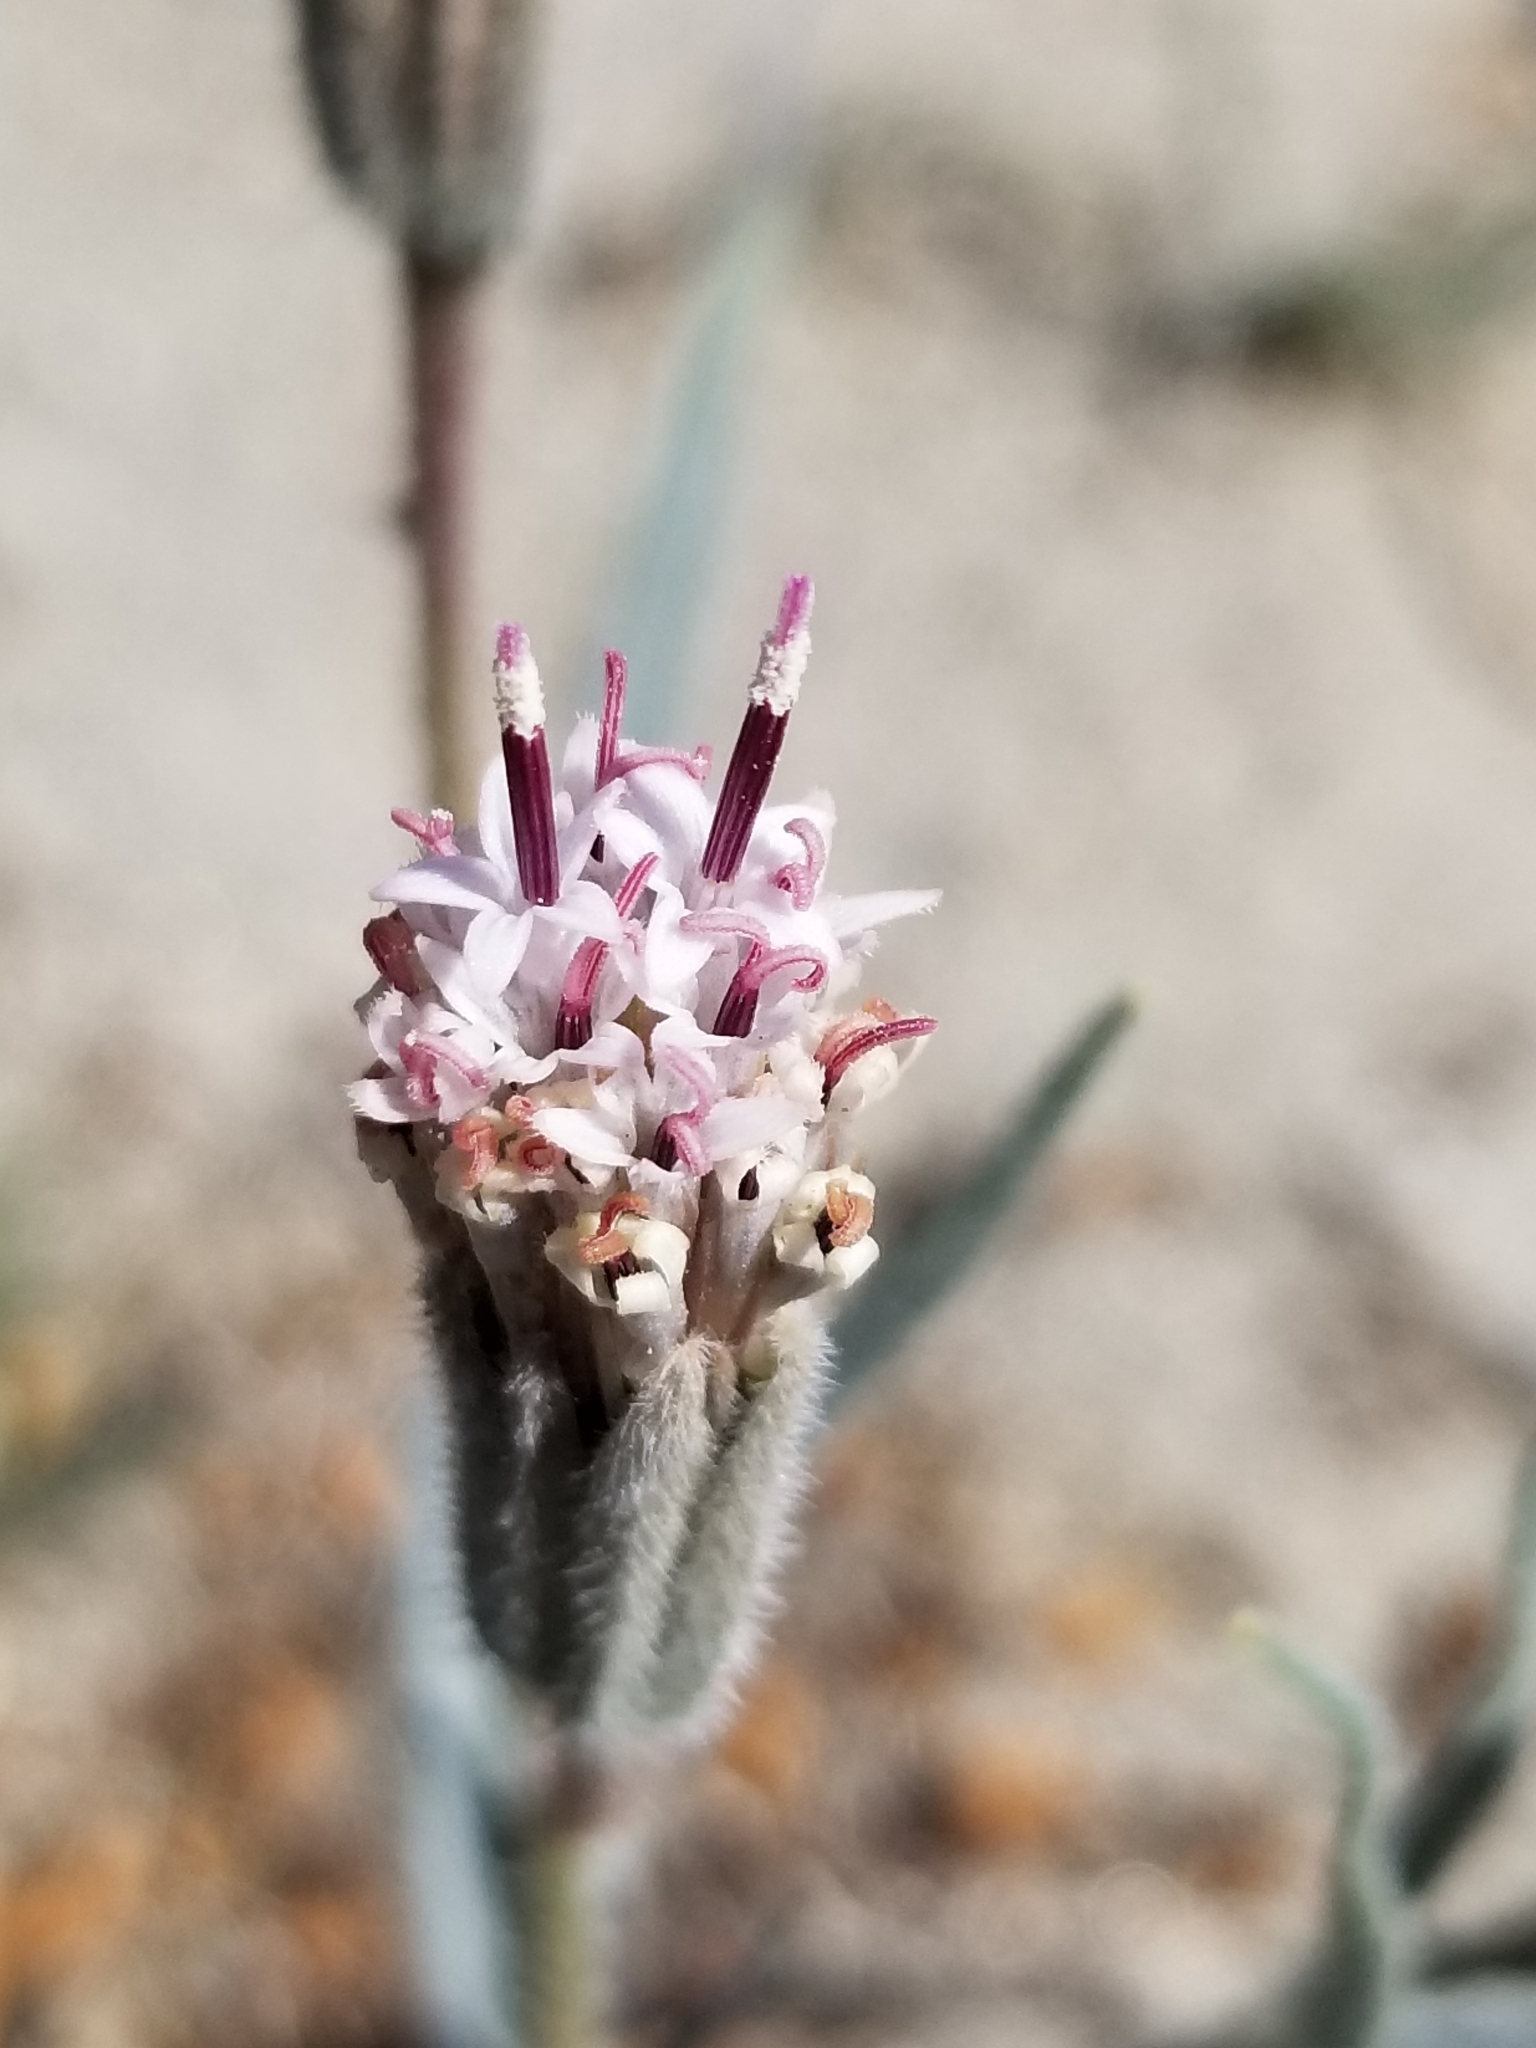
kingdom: Plantae
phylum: Tracheophyta
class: Magnoliopsida
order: Asterales
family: Asteraceae
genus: Palafoxia
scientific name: Palafoxia arida
